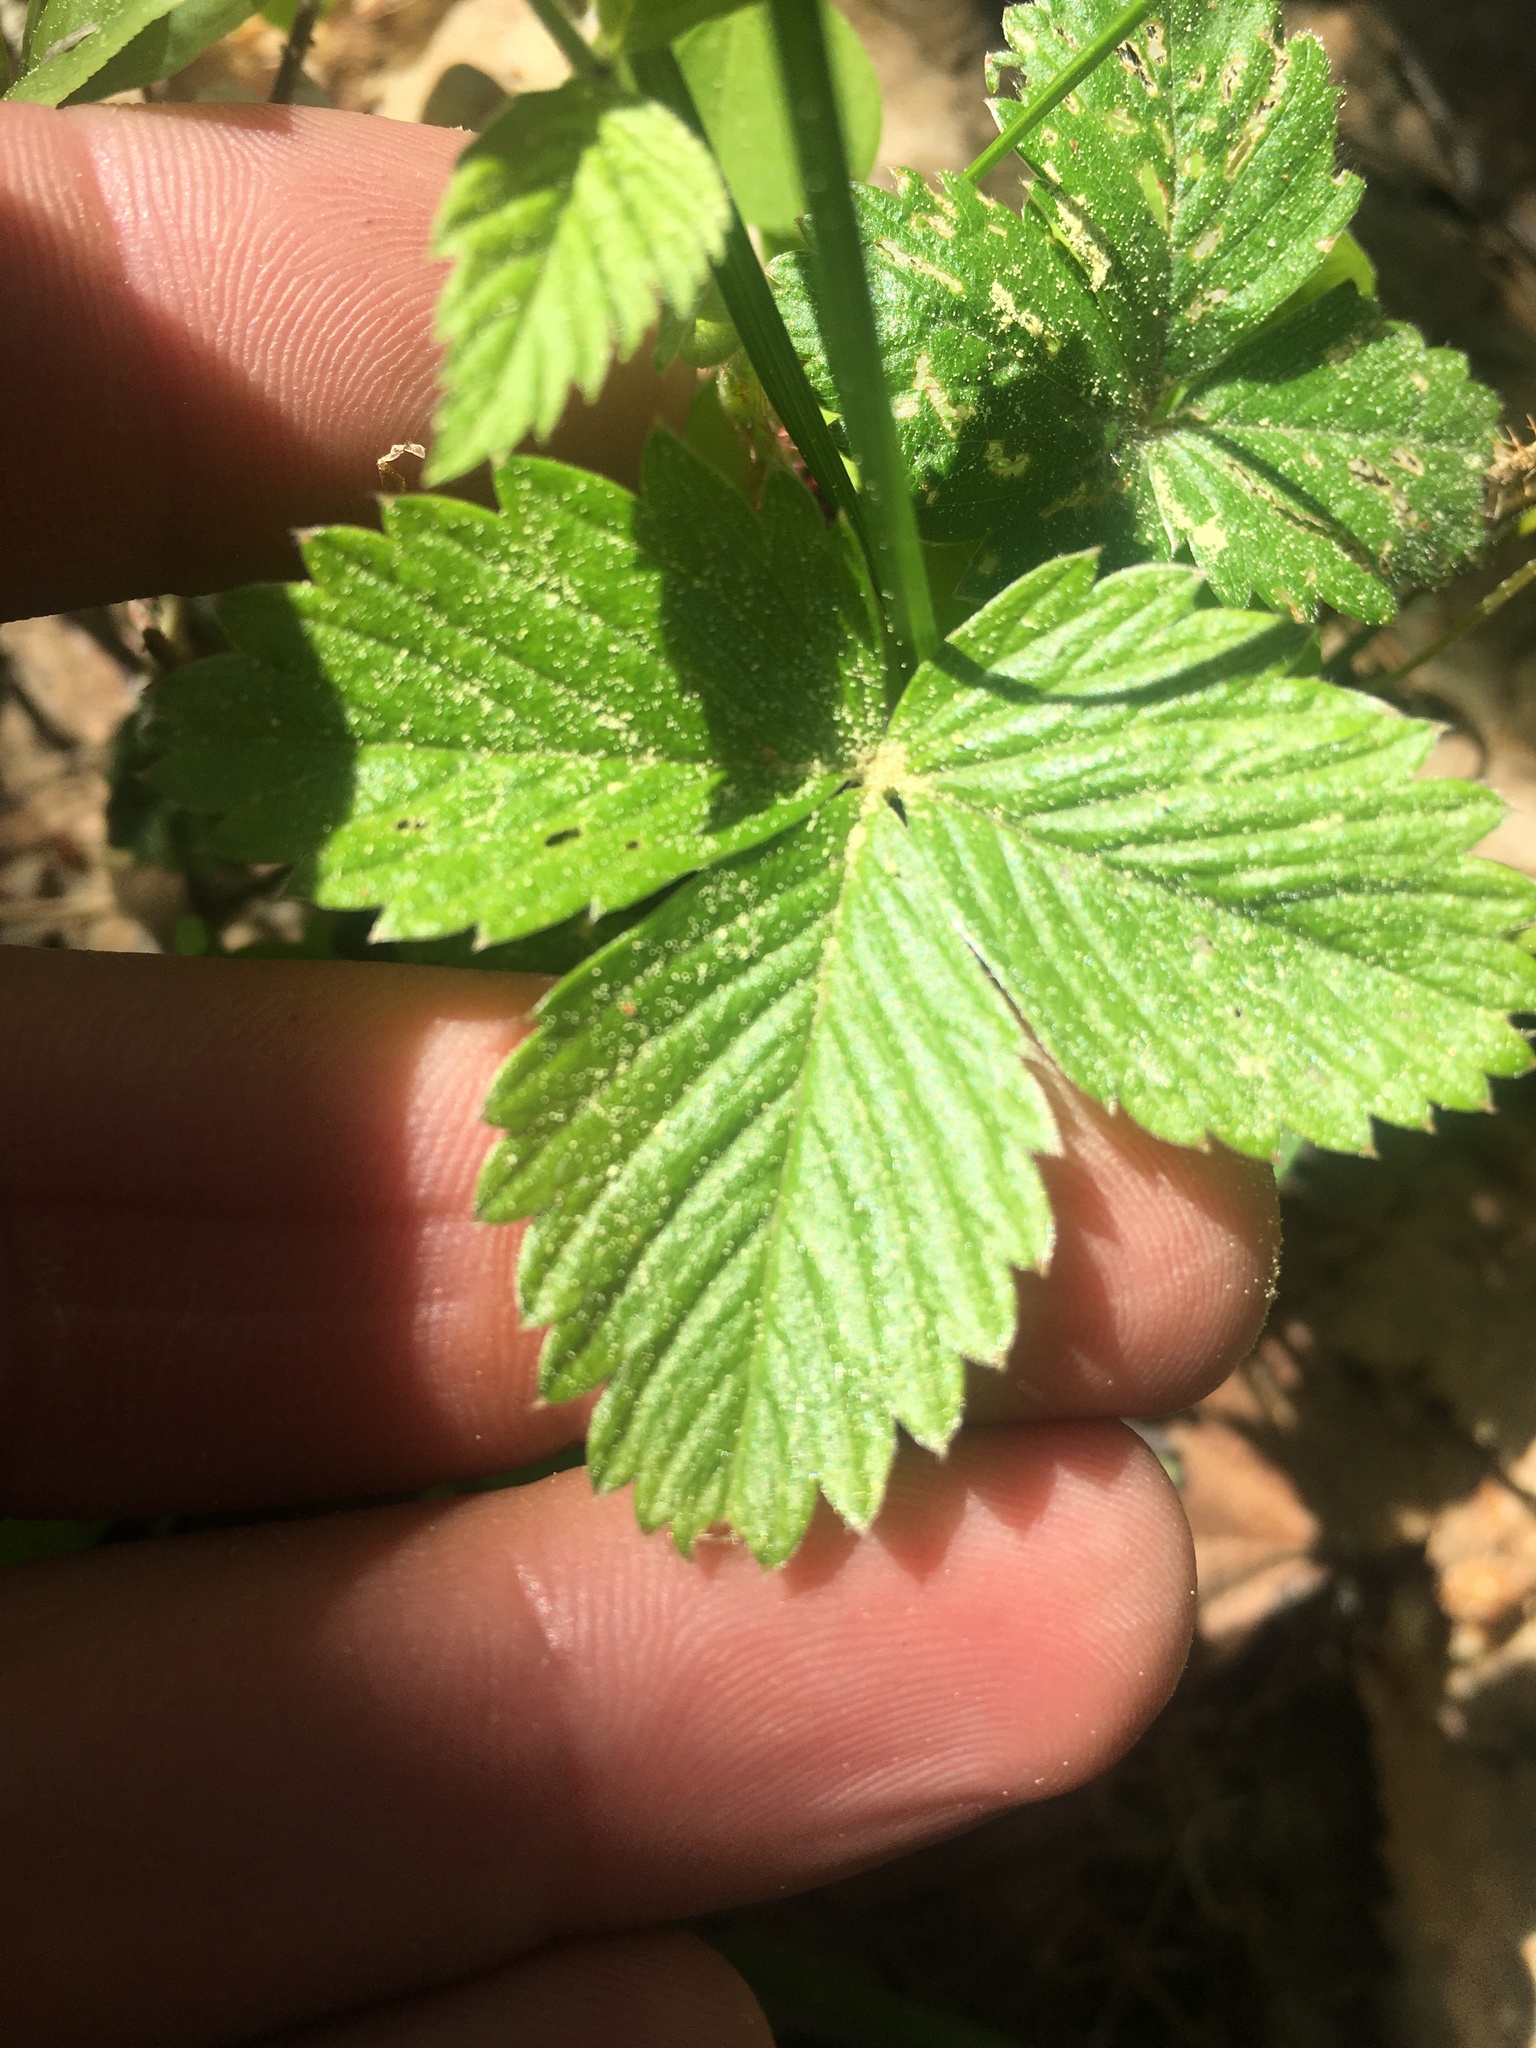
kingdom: Plantae
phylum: Tracheophyta
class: Magnoliopsida
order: Rosales
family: Rosaceae
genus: Fragaria
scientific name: Fragaria vesca
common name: Wild strawberry
